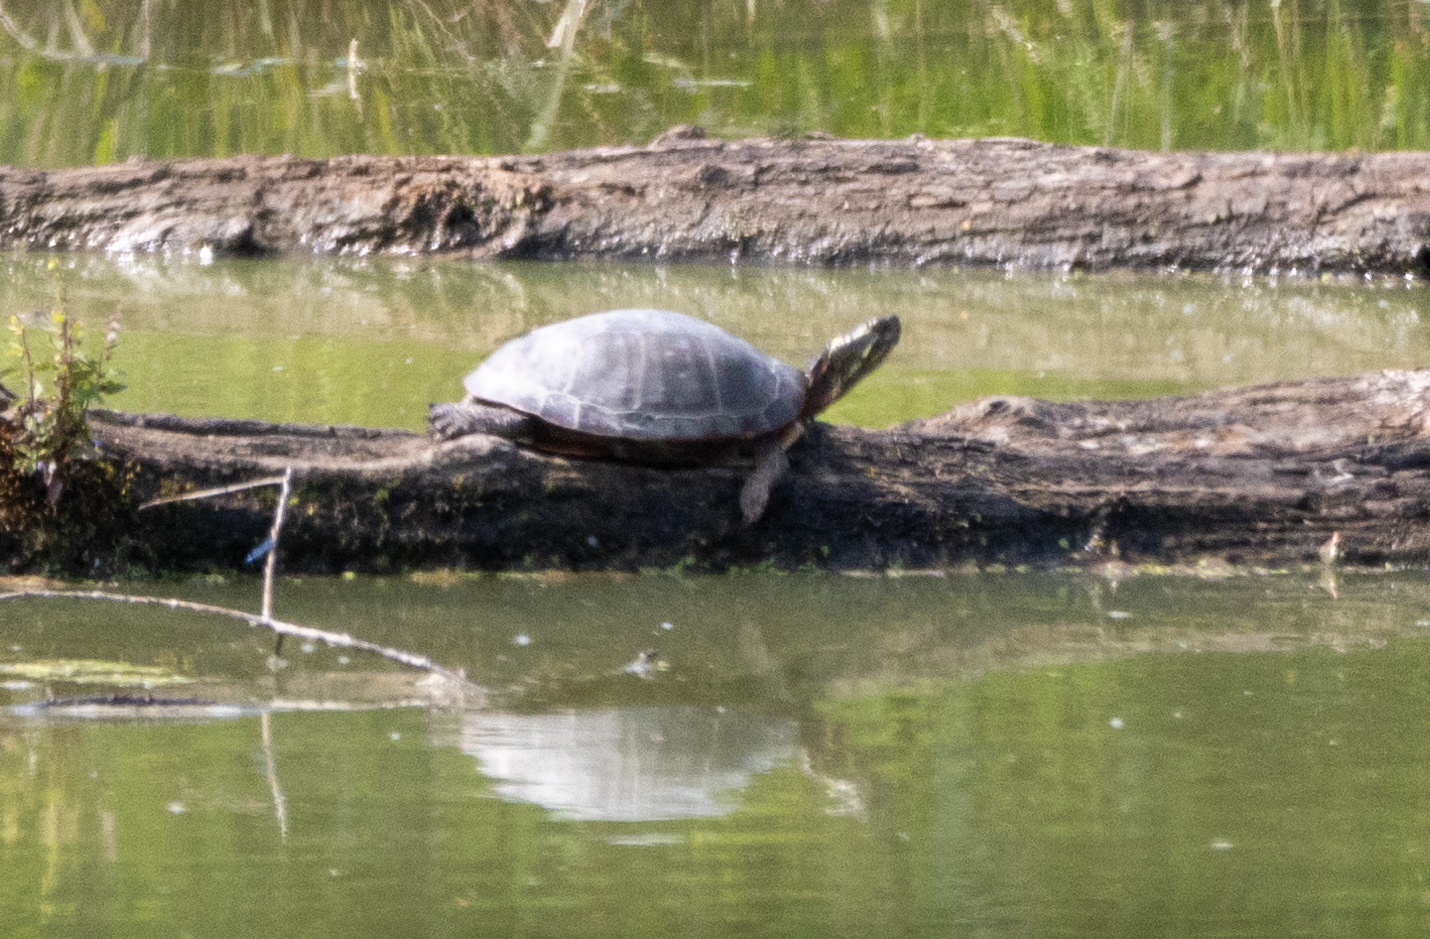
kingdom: Animalia
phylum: Chordata
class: Testudines
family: Emydidae
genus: Chrysemys
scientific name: Chrysemys picta
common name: Painted turtle
